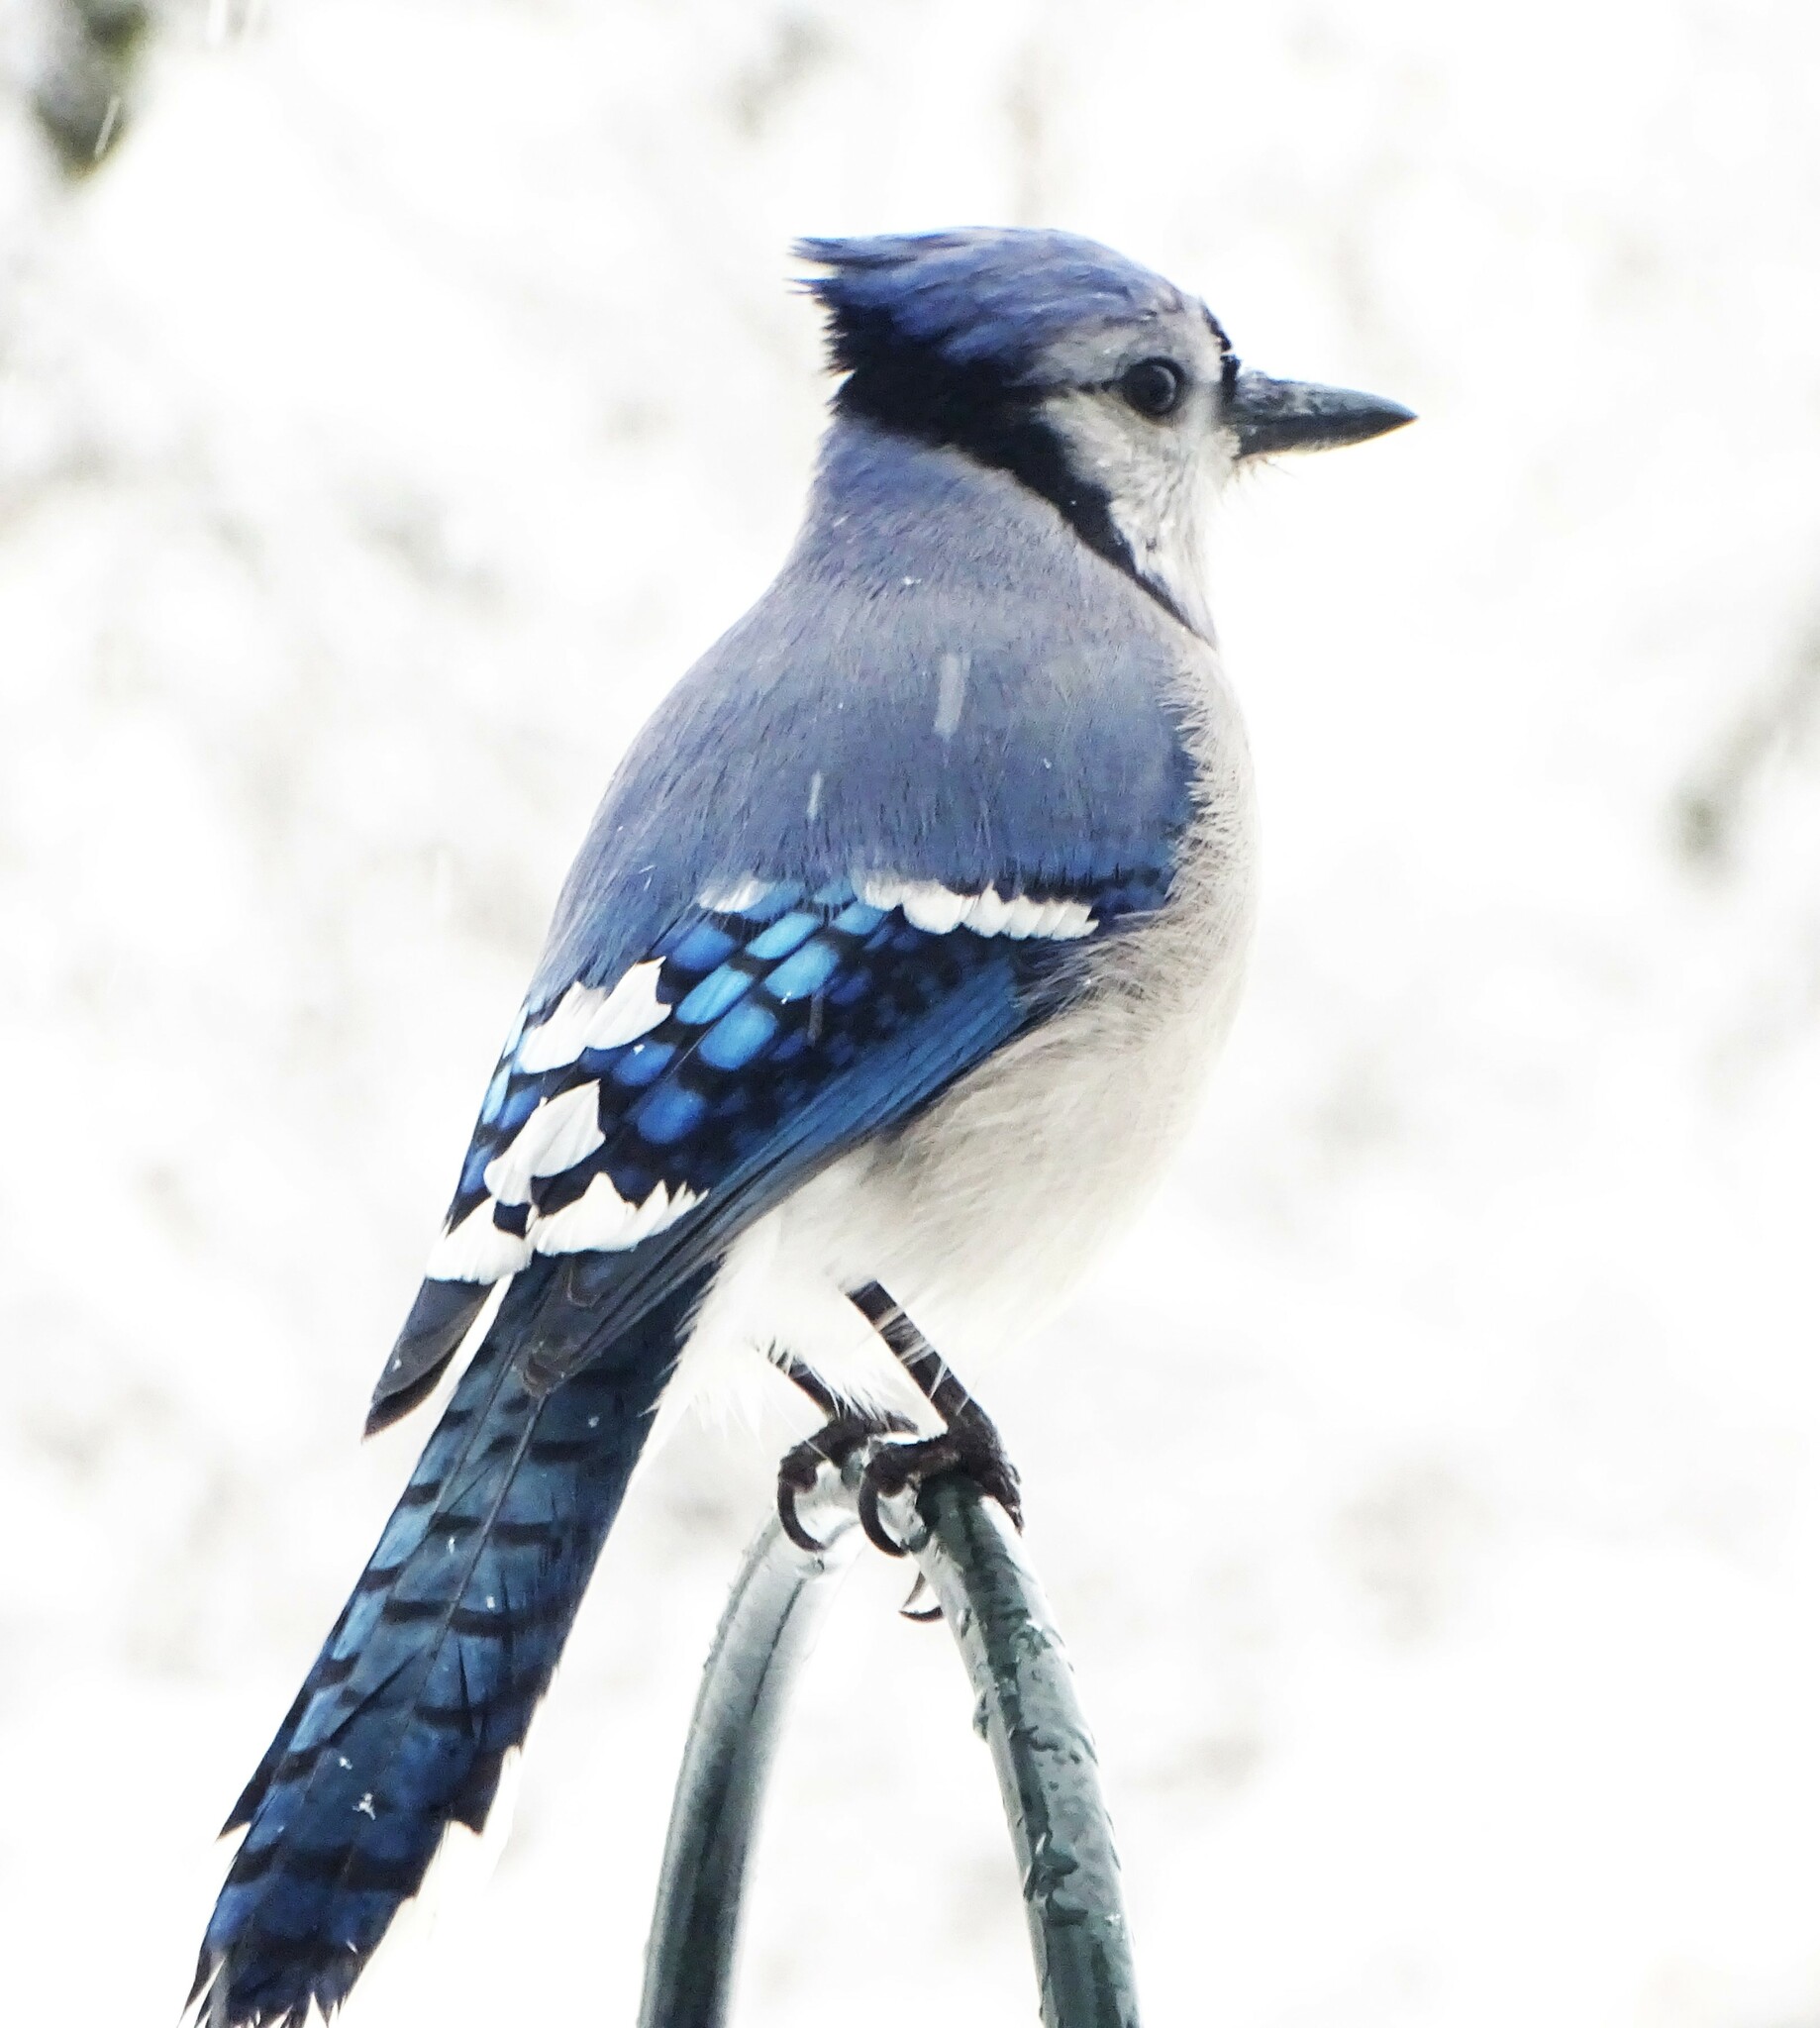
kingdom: Animalia
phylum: Chordata
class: Aves
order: Passeriformes
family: Corvidae
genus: Cyanocitta
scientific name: Cyanocitta cristata
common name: Blue jay
